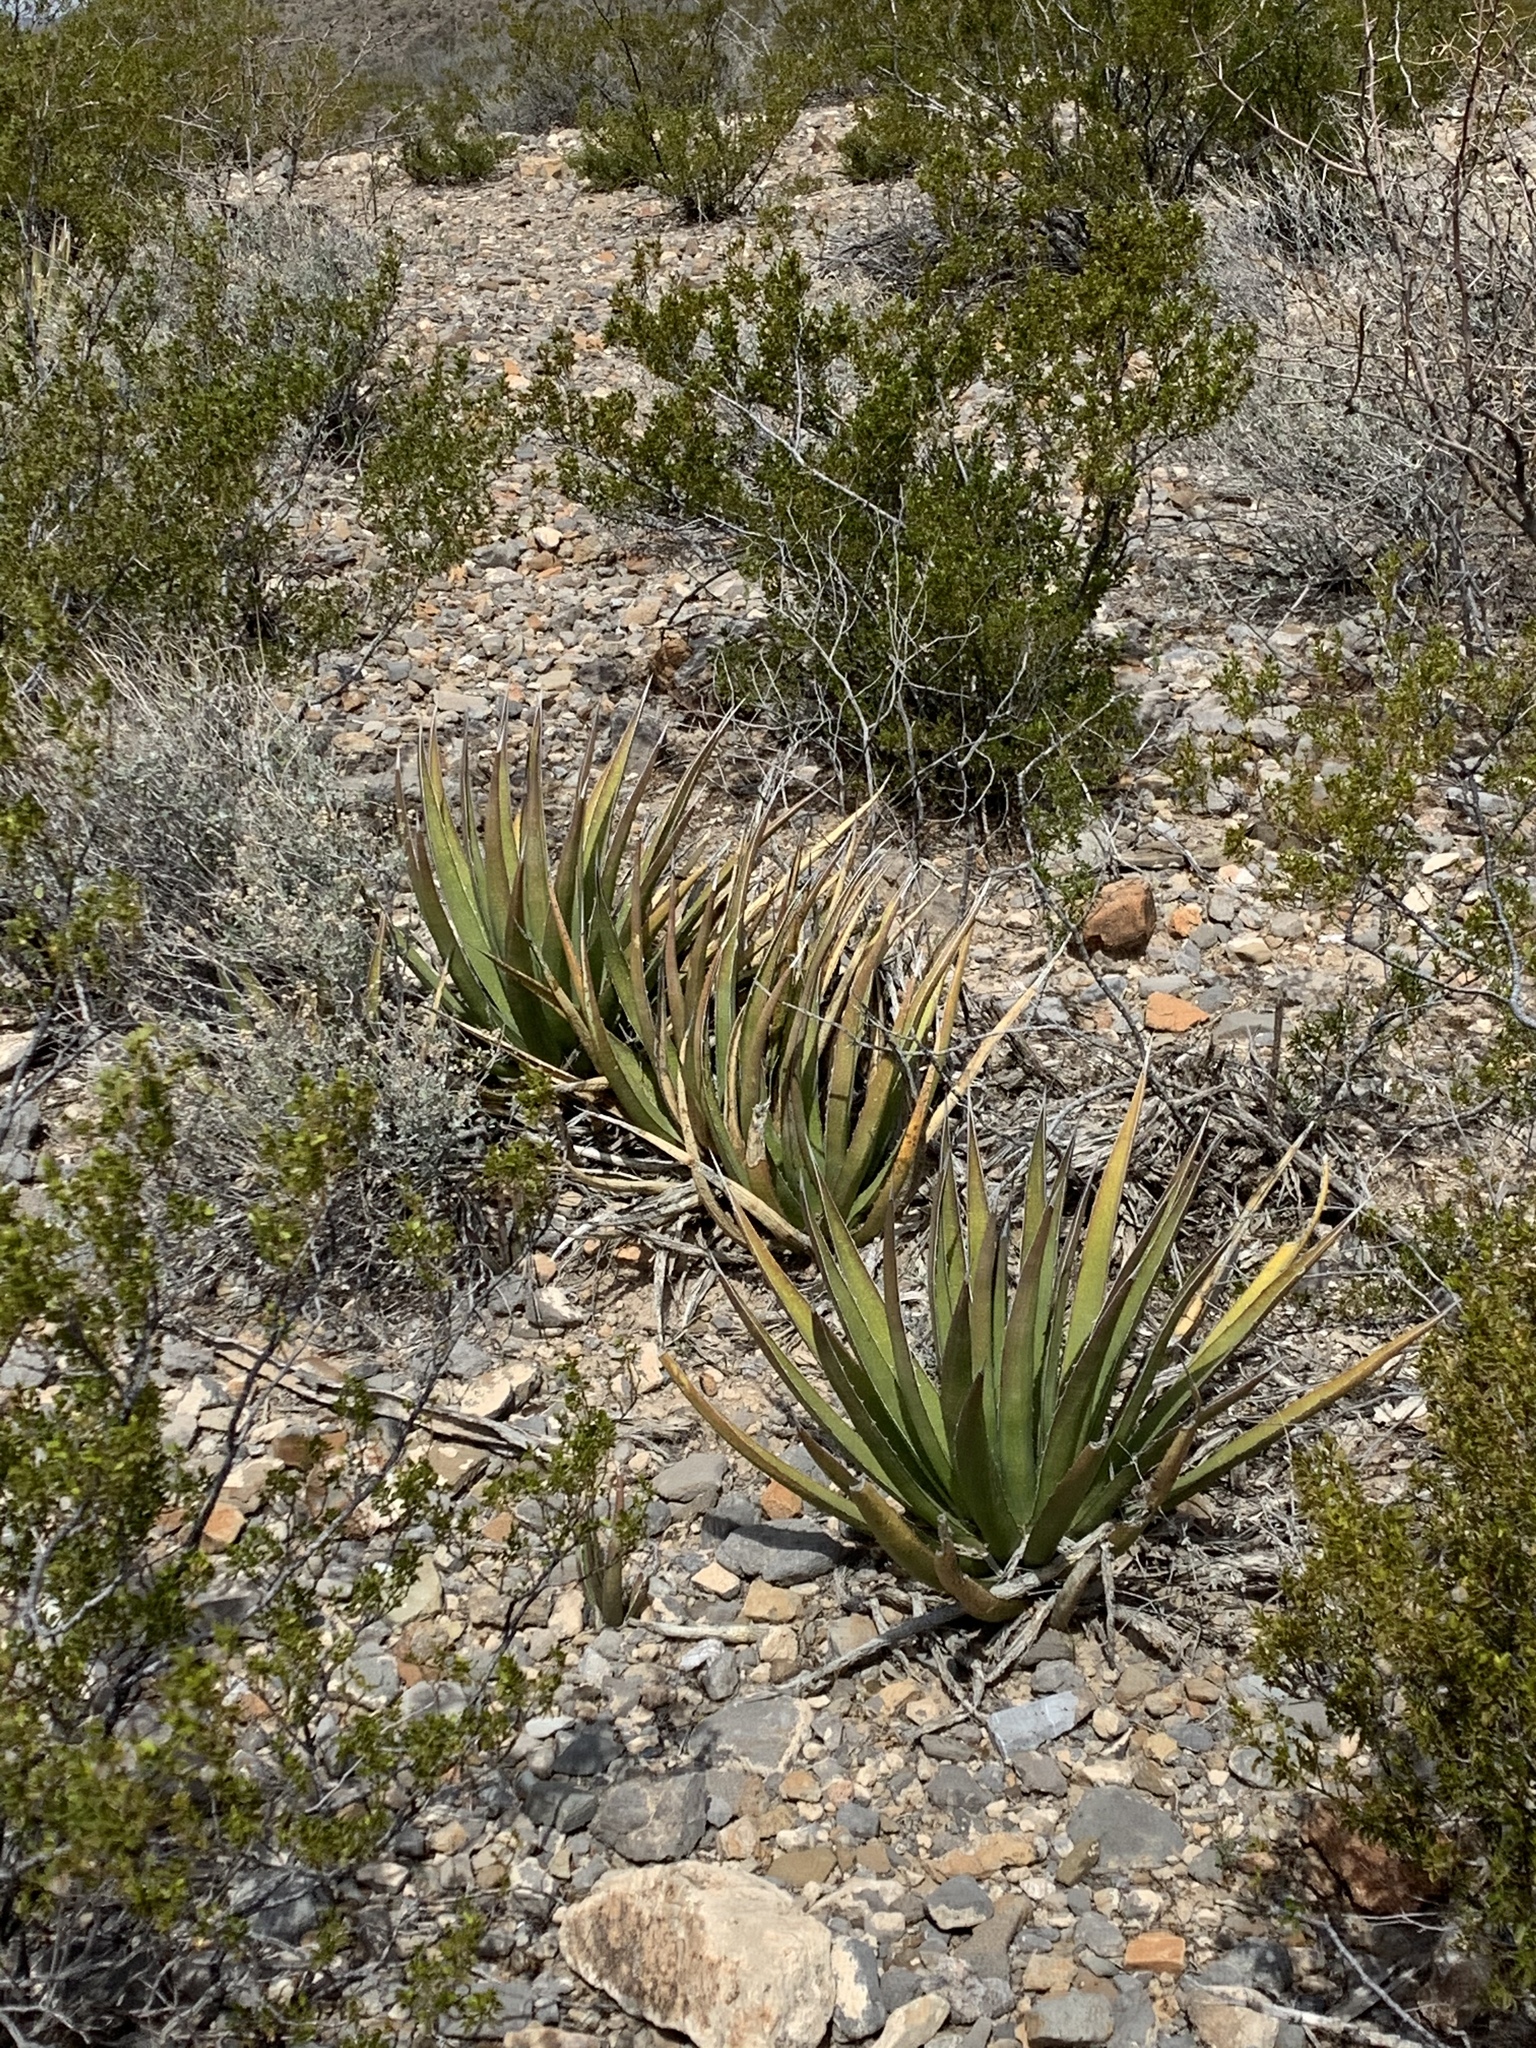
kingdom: Plantae
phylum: Tracheophyta
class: Liliopsida
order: Asparagales
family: Asparagaceae
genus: Agave
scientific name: Agave lechuguilla
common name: Lecheguilla agave
